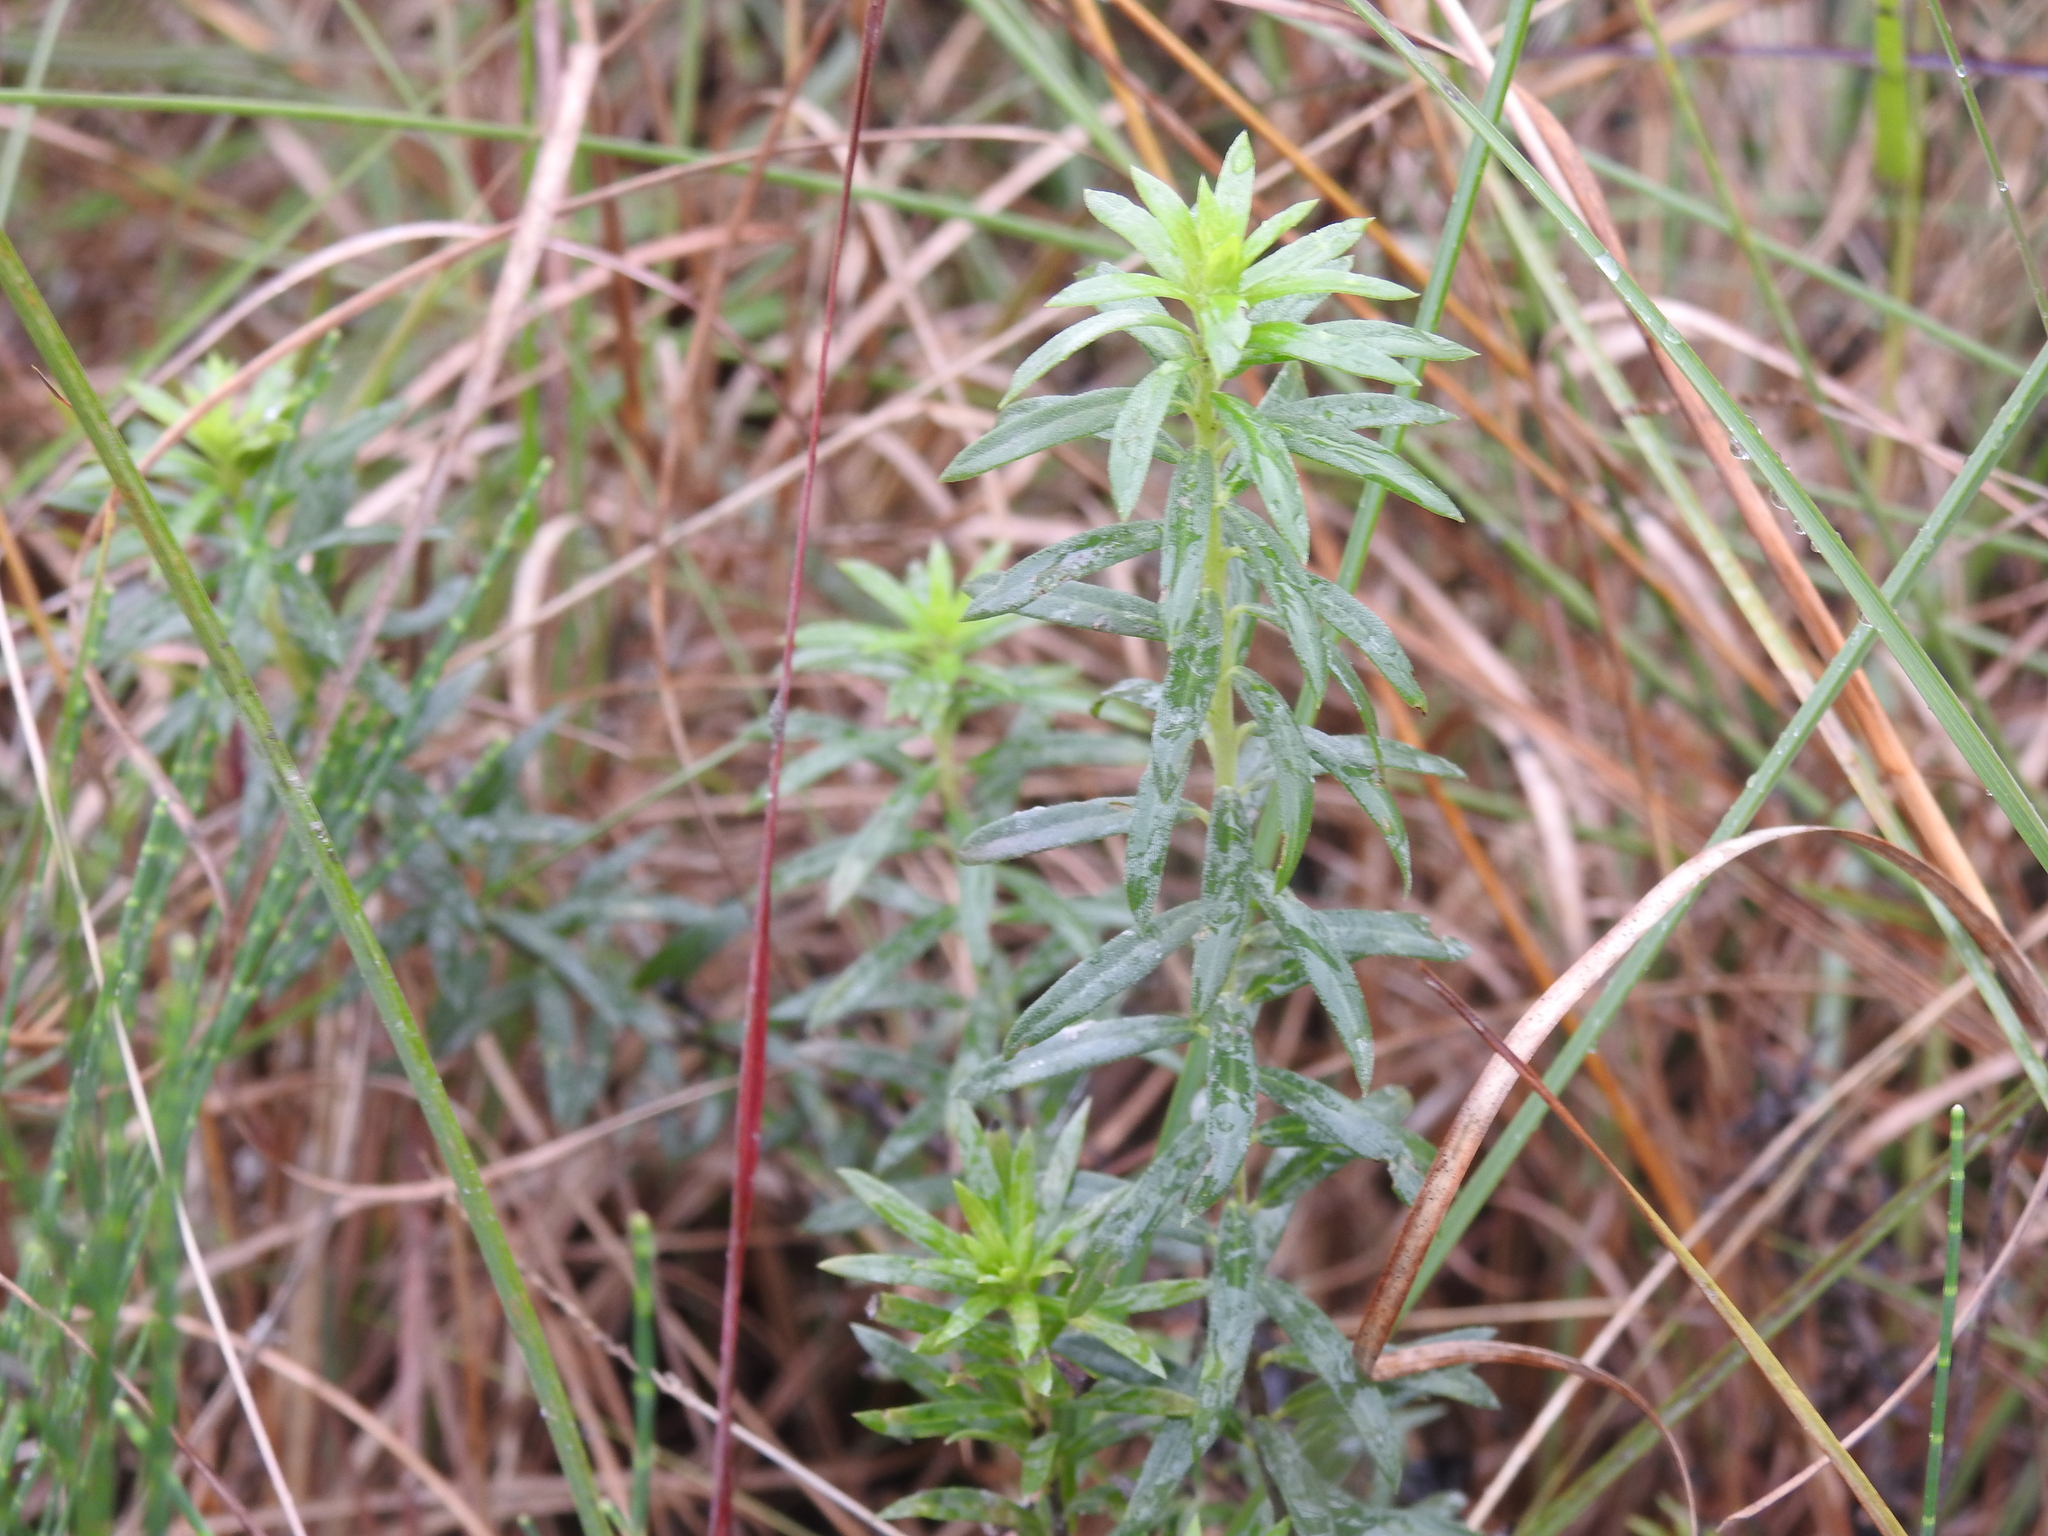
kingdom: Plantae
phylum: Tracheophyta
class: Magnoliopsida
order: Boraginales
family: Heliotropiaceae
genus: Euploca
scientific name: Euploca polyphylla
